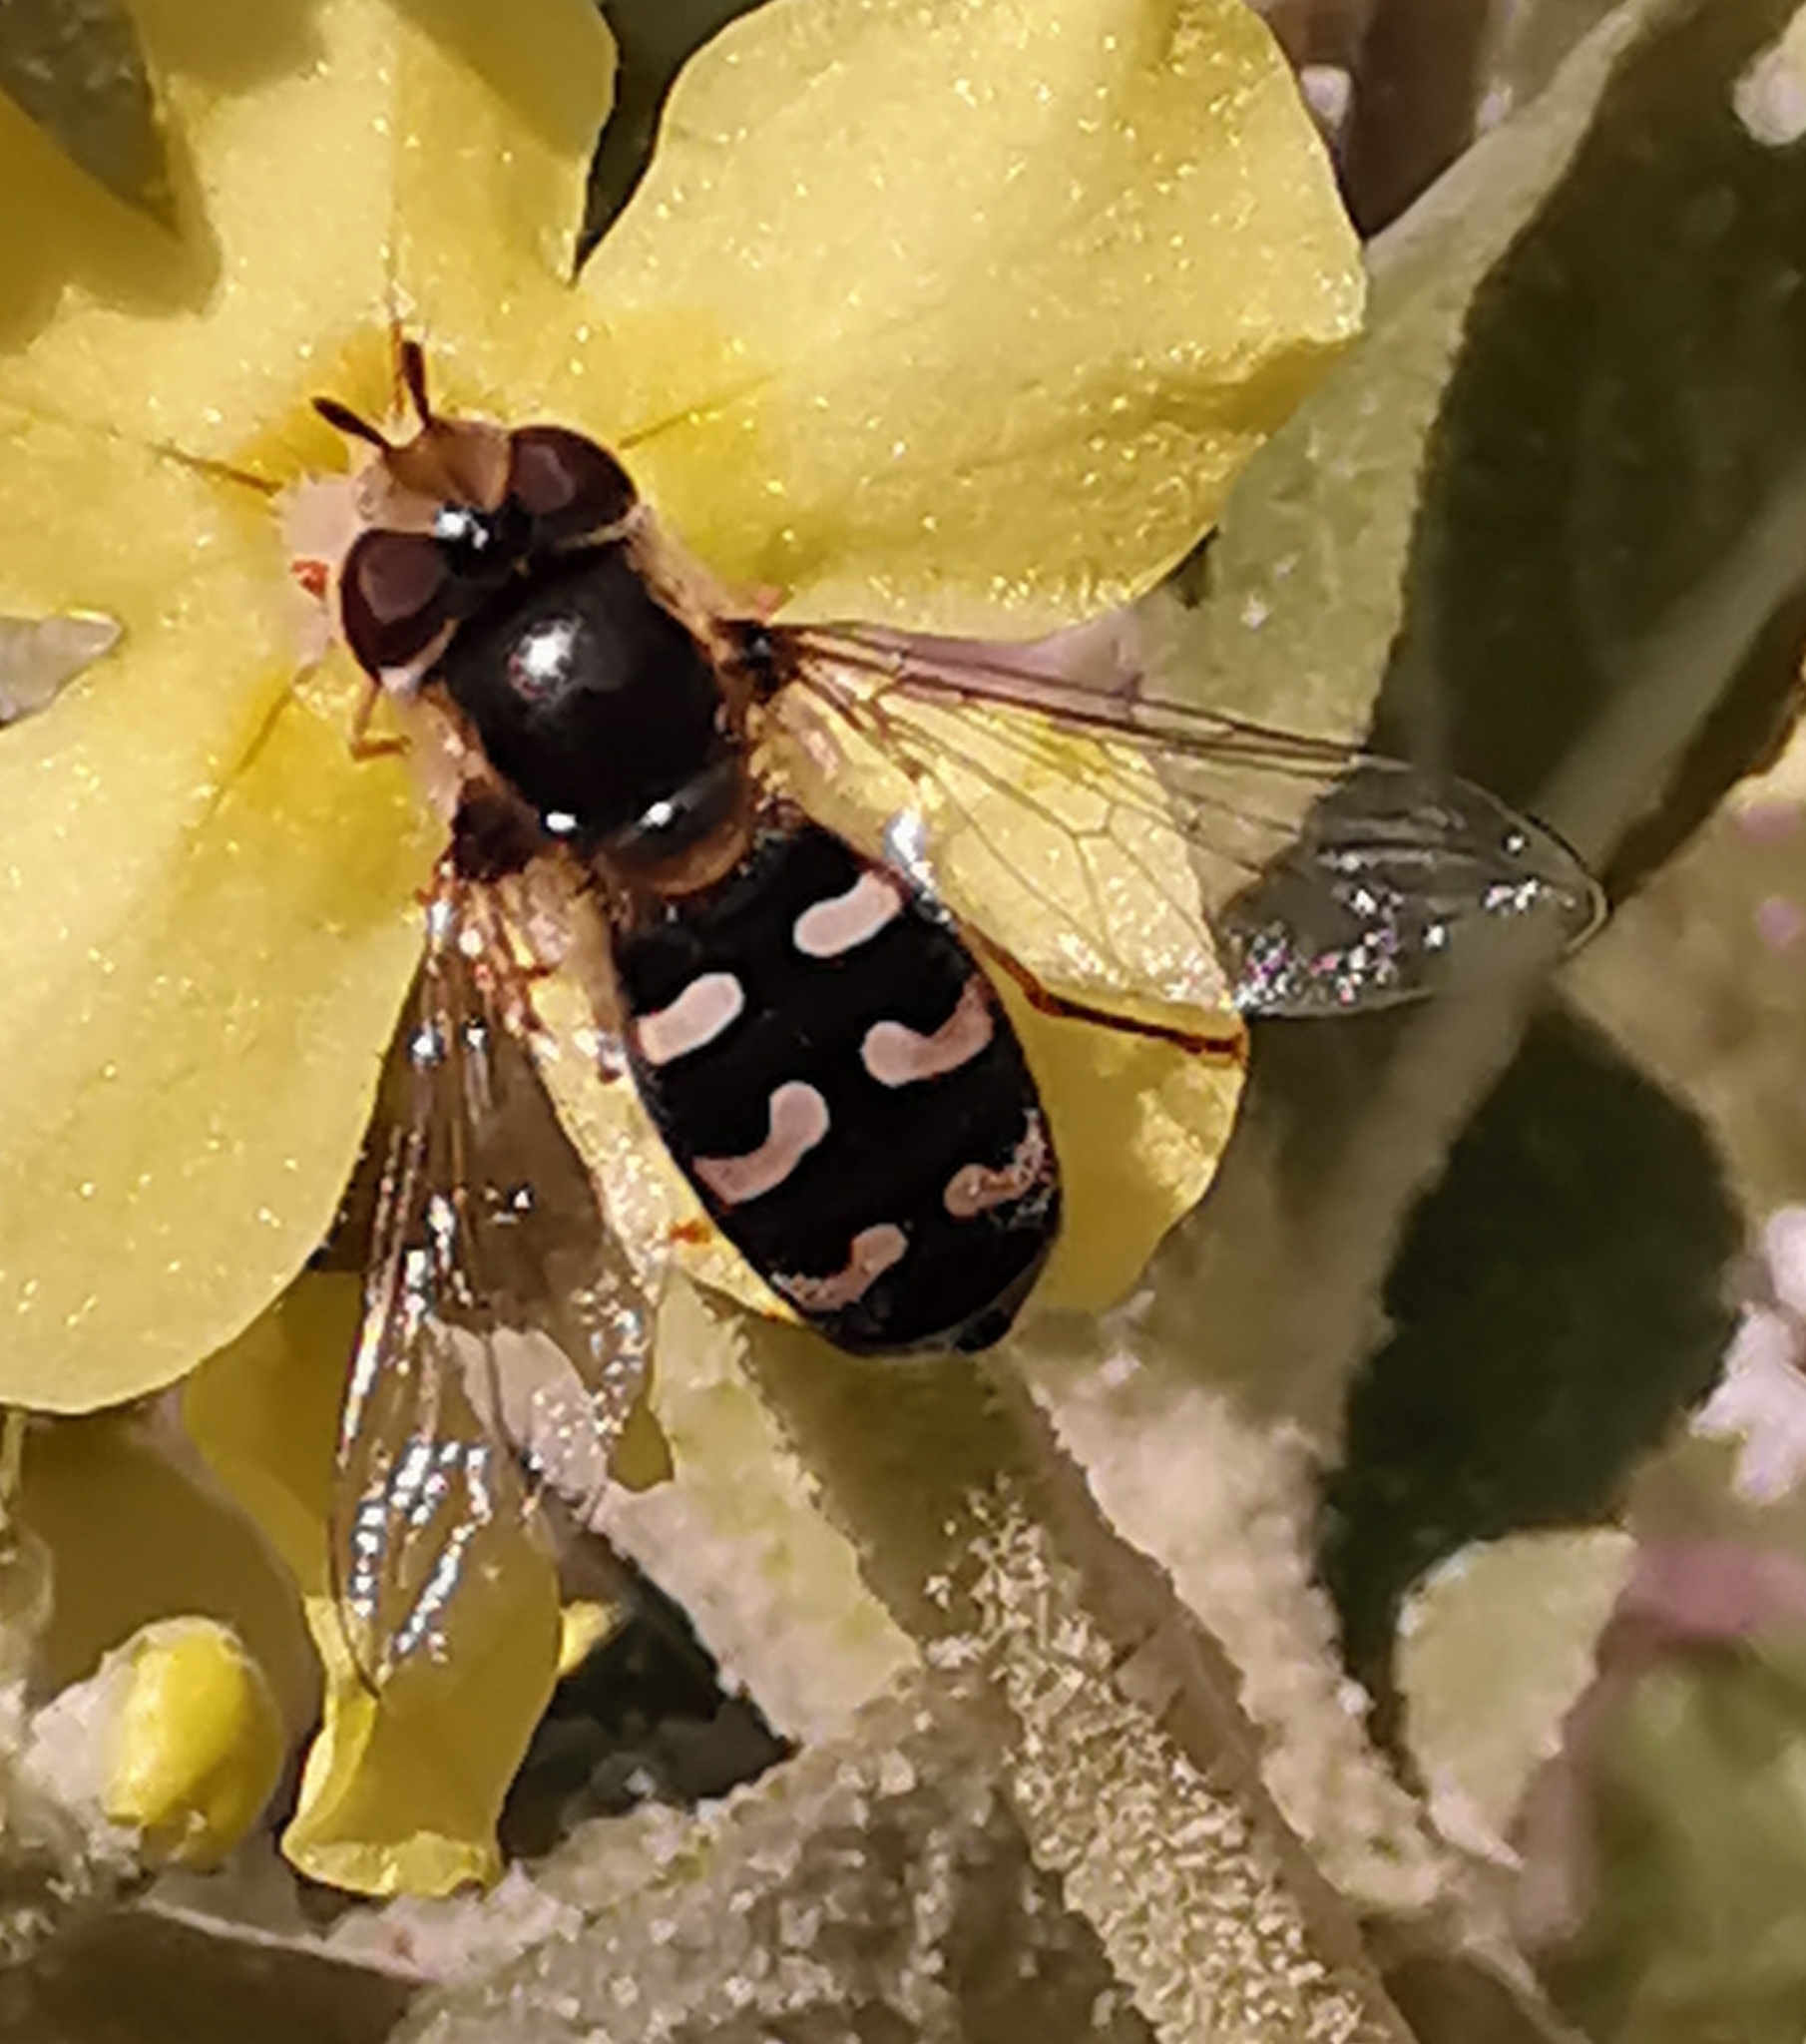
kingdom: Animalia
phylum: Arthropoda
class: Insecta
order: Diptera
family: Syrphidae
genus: Scaeva
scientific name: Scaeva pyrastri
